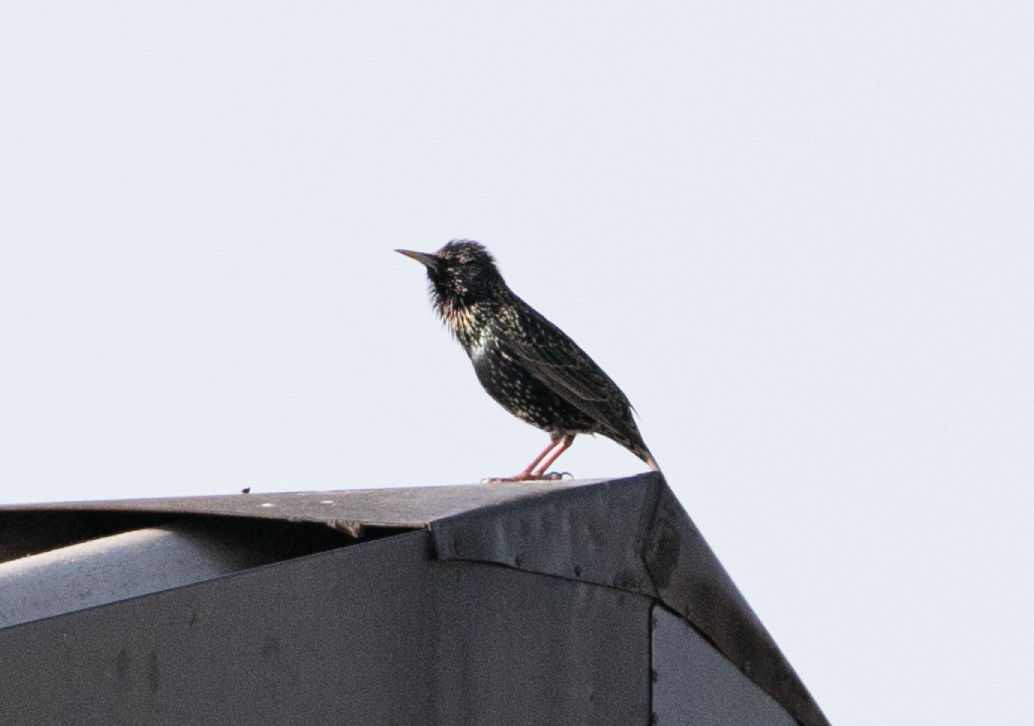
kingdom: Animalia
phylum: Chordata
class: Aves
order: Passeriformes
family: Sturnidae
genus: Sturnus
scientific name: Sturnus vulgaris
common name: Common starling
